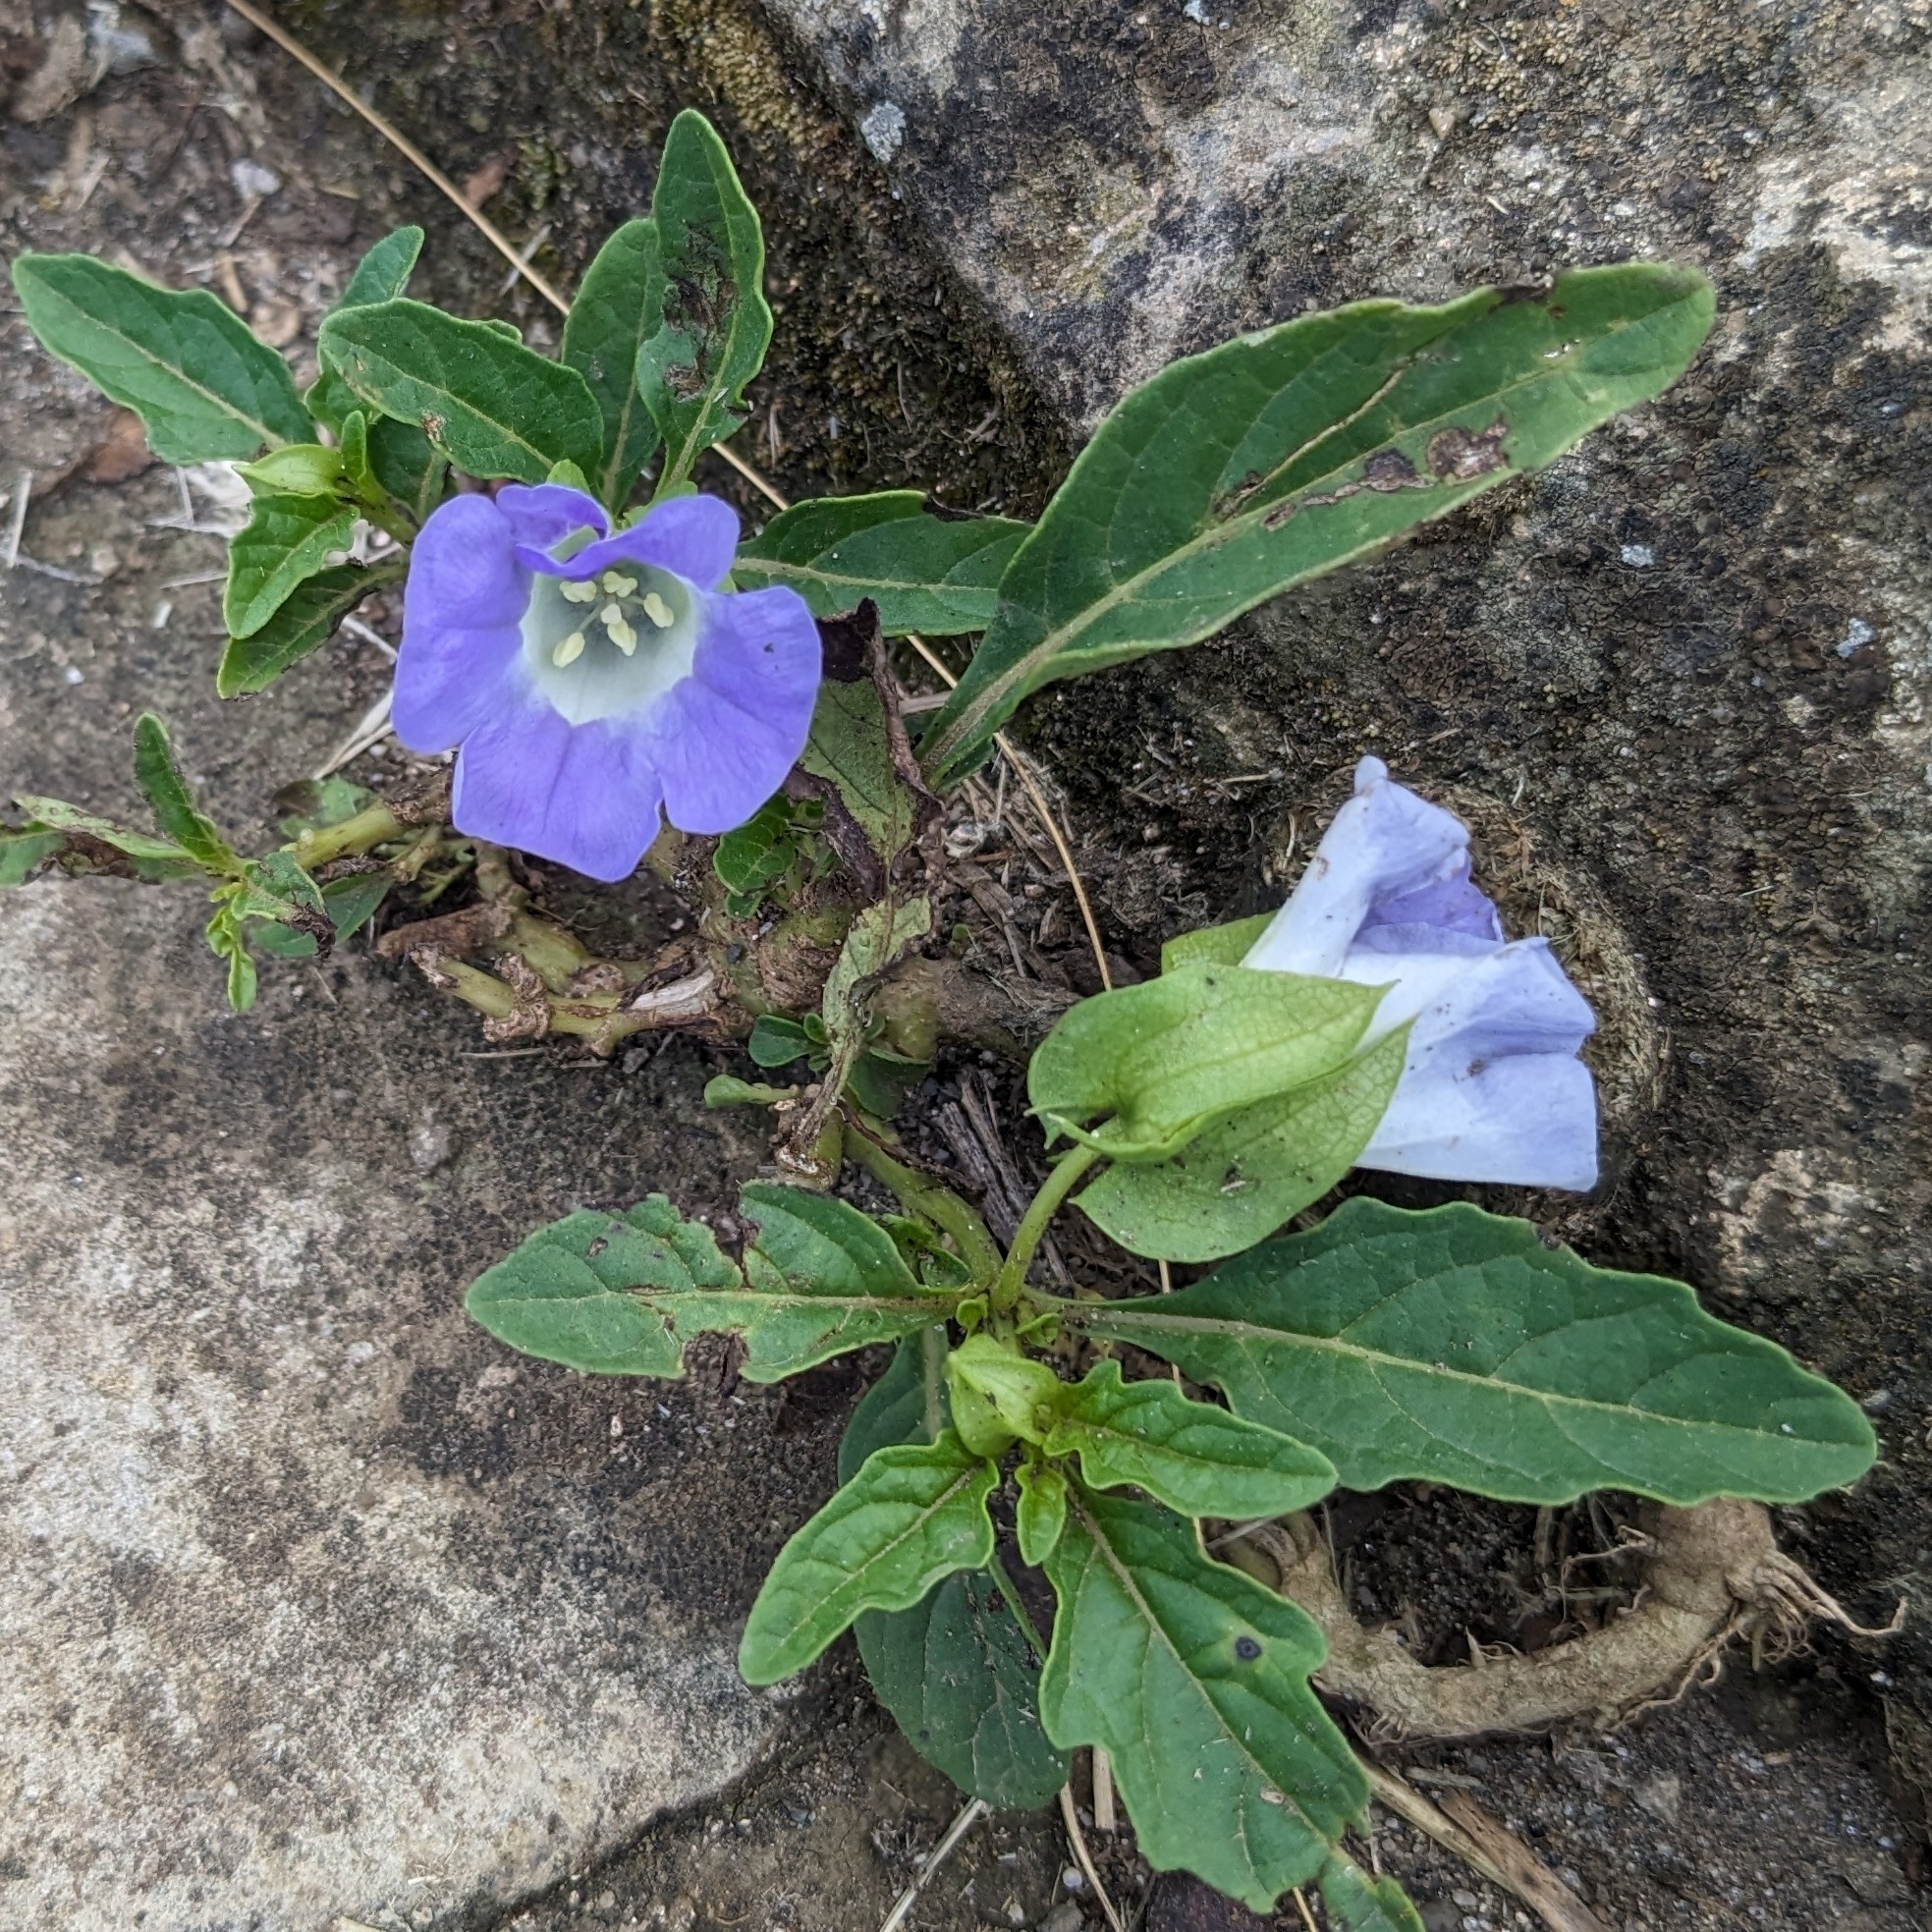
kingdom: Plantae
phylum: Tracheophyta
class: Magnoliopsida
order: Solanales
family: Solanaceae
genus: Nicandra
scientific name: Nicandra physalodes
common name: Apple-of-peru
